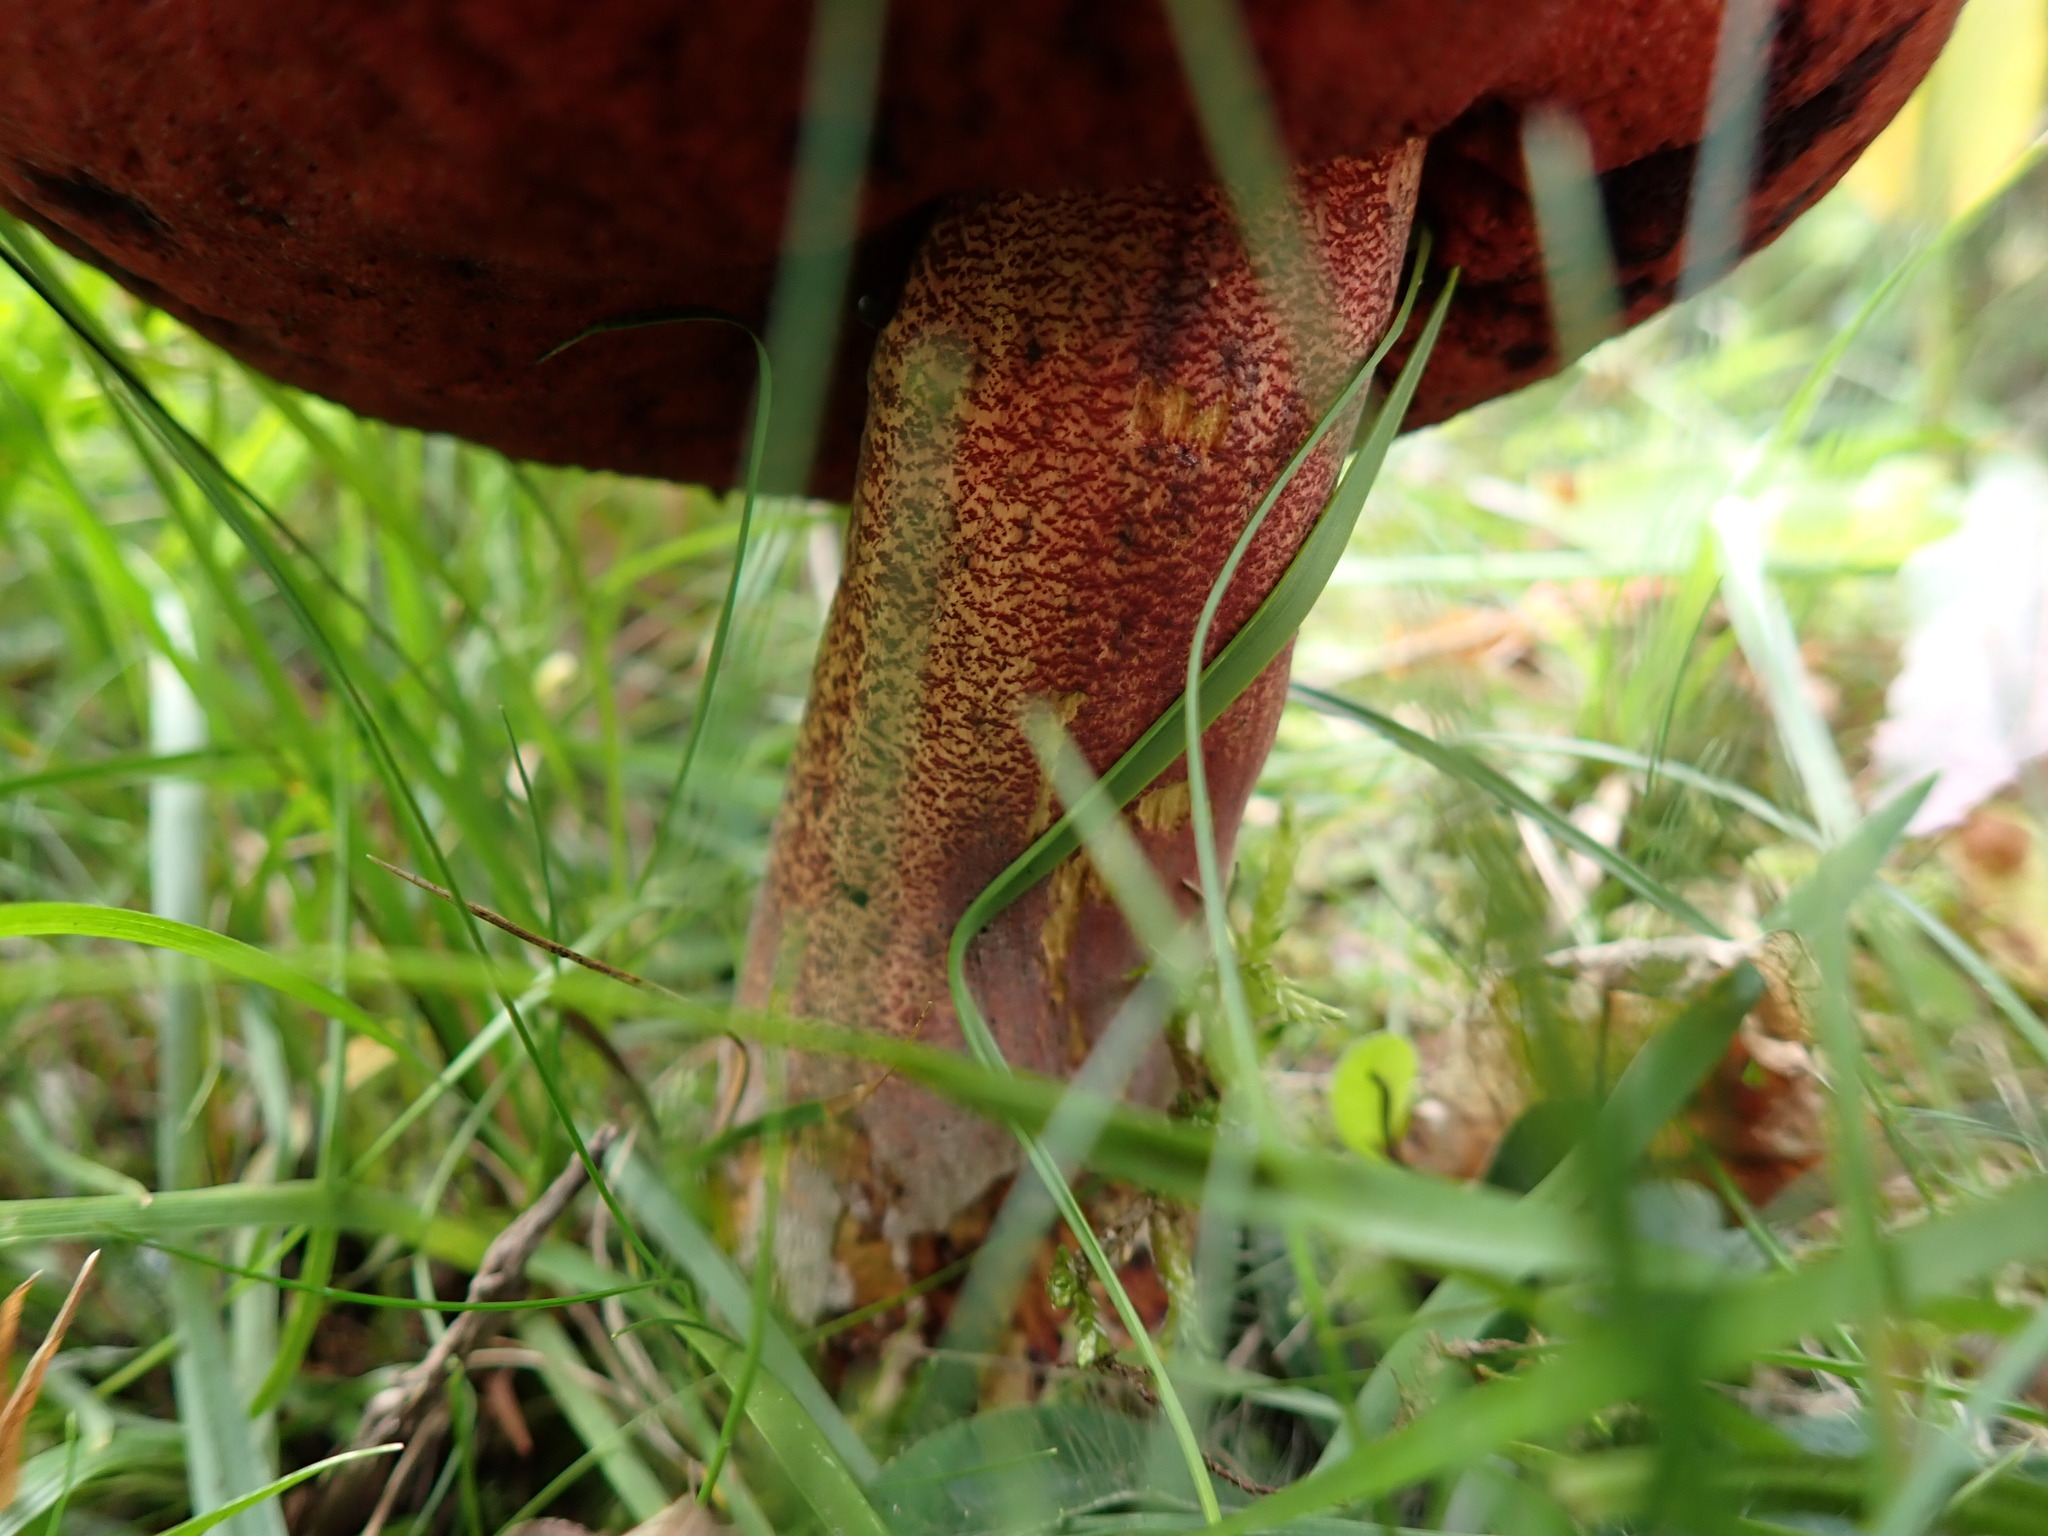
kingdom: Fungi
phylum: Basidiomycota
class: Agaricomycetes
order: Boletales
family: Boletaceae
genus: Neoboletus
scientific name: Neoboletus luridiformis
